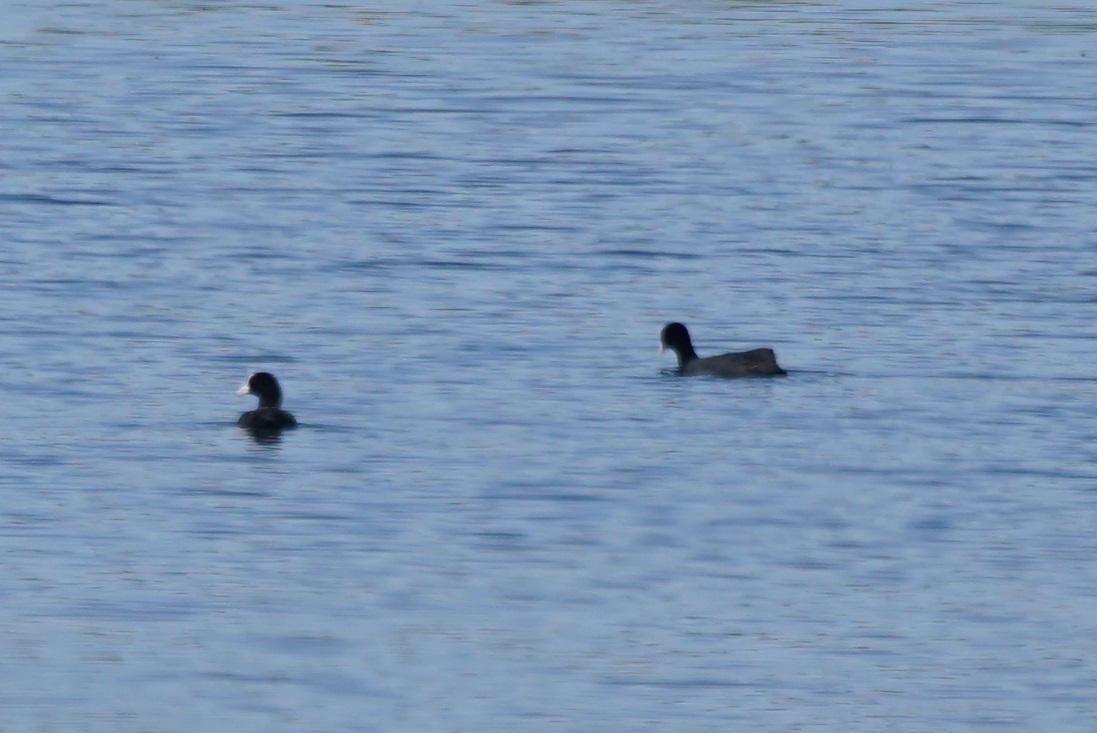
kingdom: Animalia
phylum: Chordata
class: Aves
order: Gruiformes
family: Rallidae
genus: Fulica
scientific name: Fulica atra
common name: Eurasian coot
